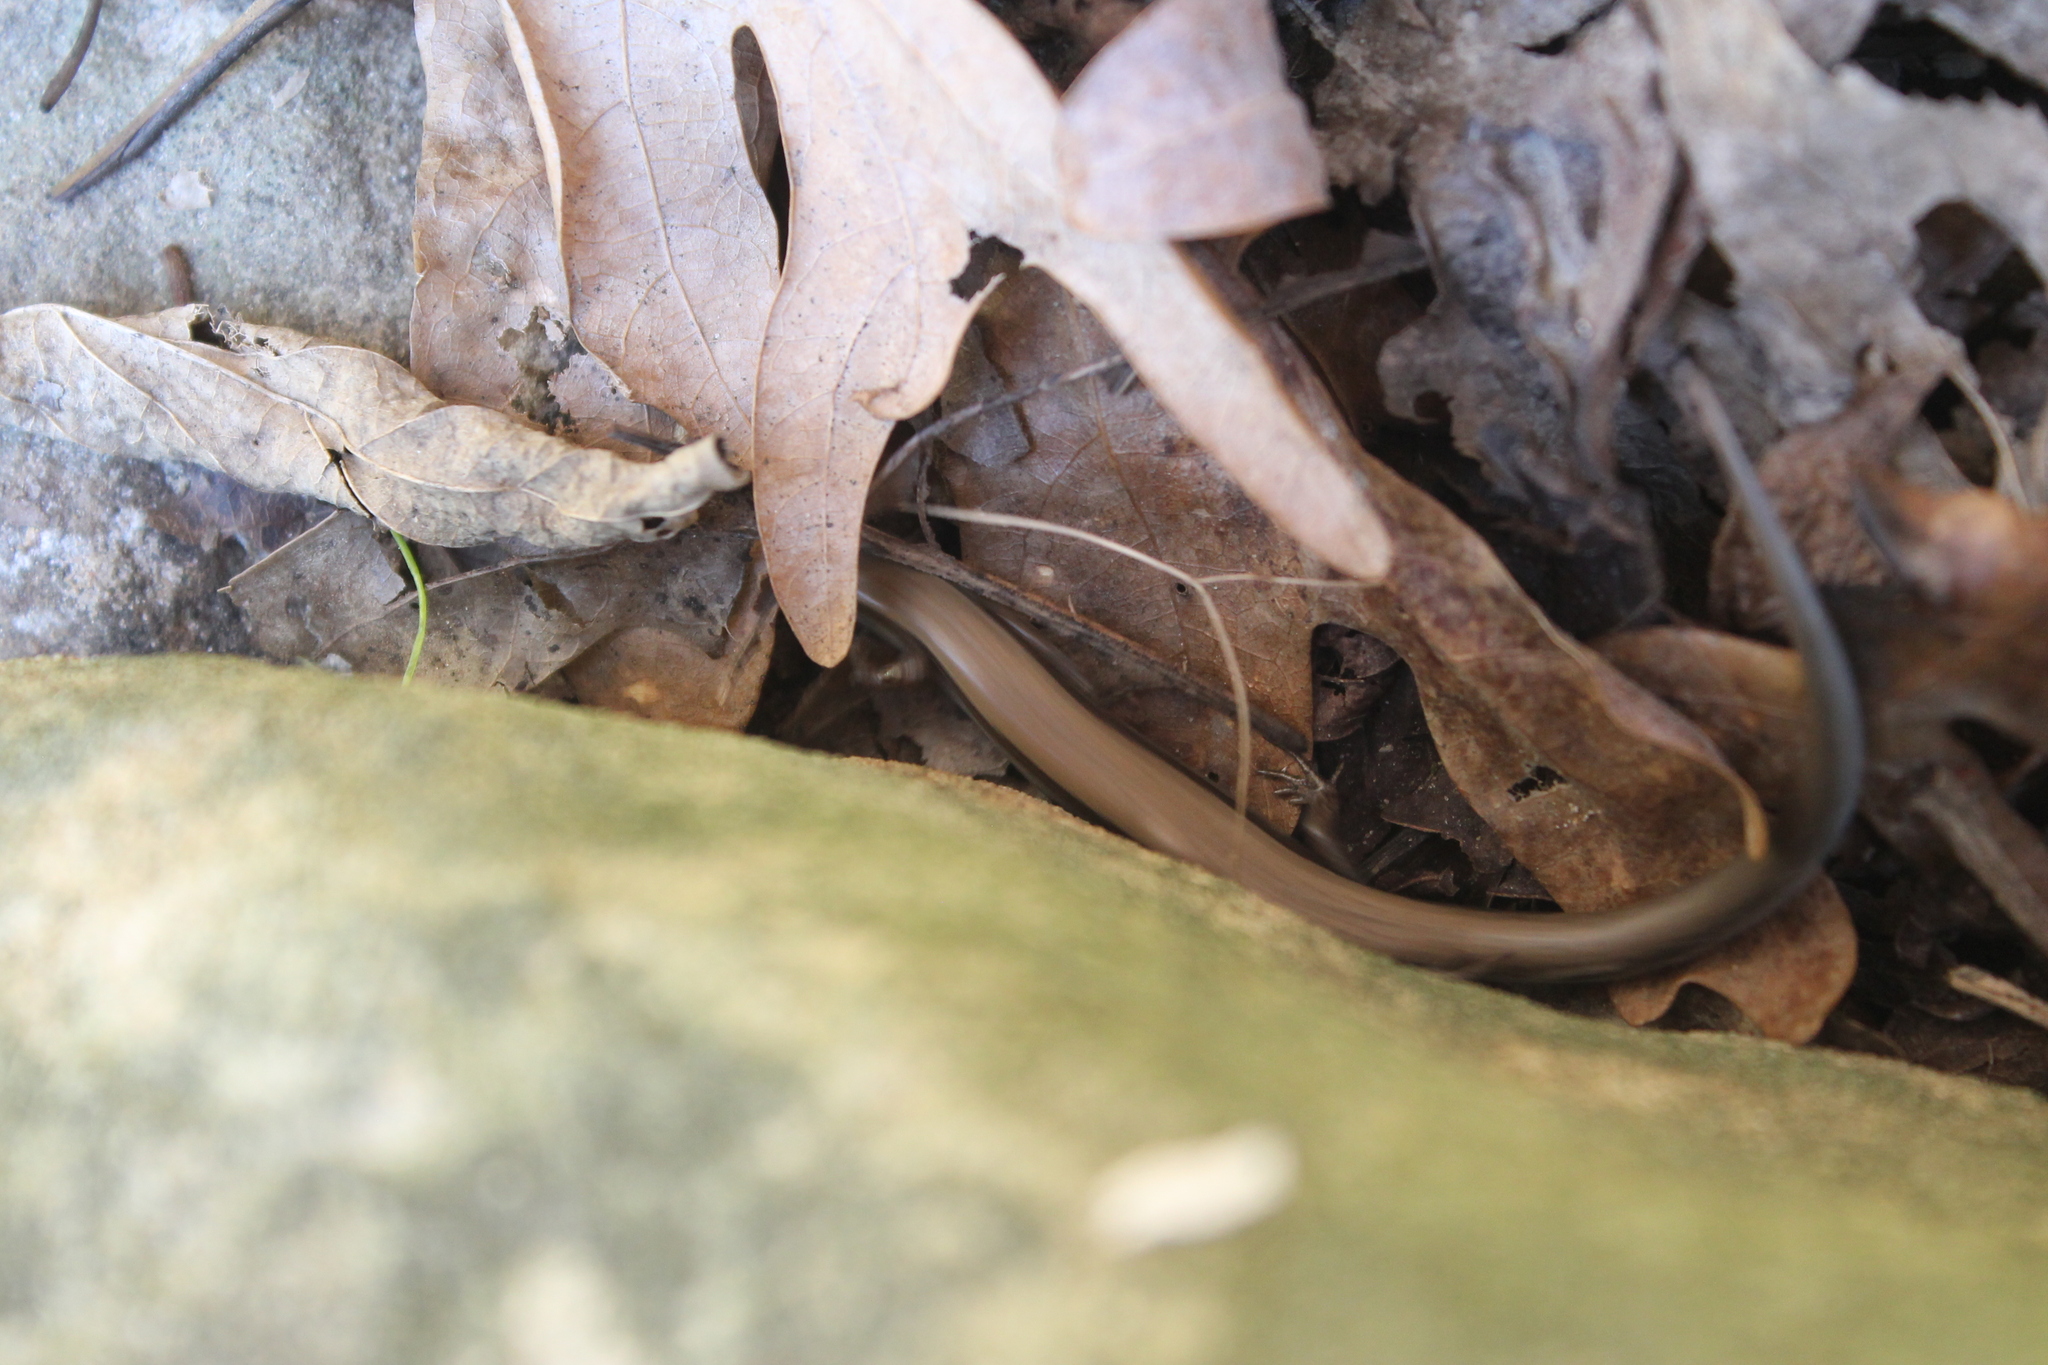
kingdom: Animalia
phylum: Chordata
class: Squamata
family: Scincidae
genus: Scincella
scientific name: Scincella lateralis
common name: Ground skink
